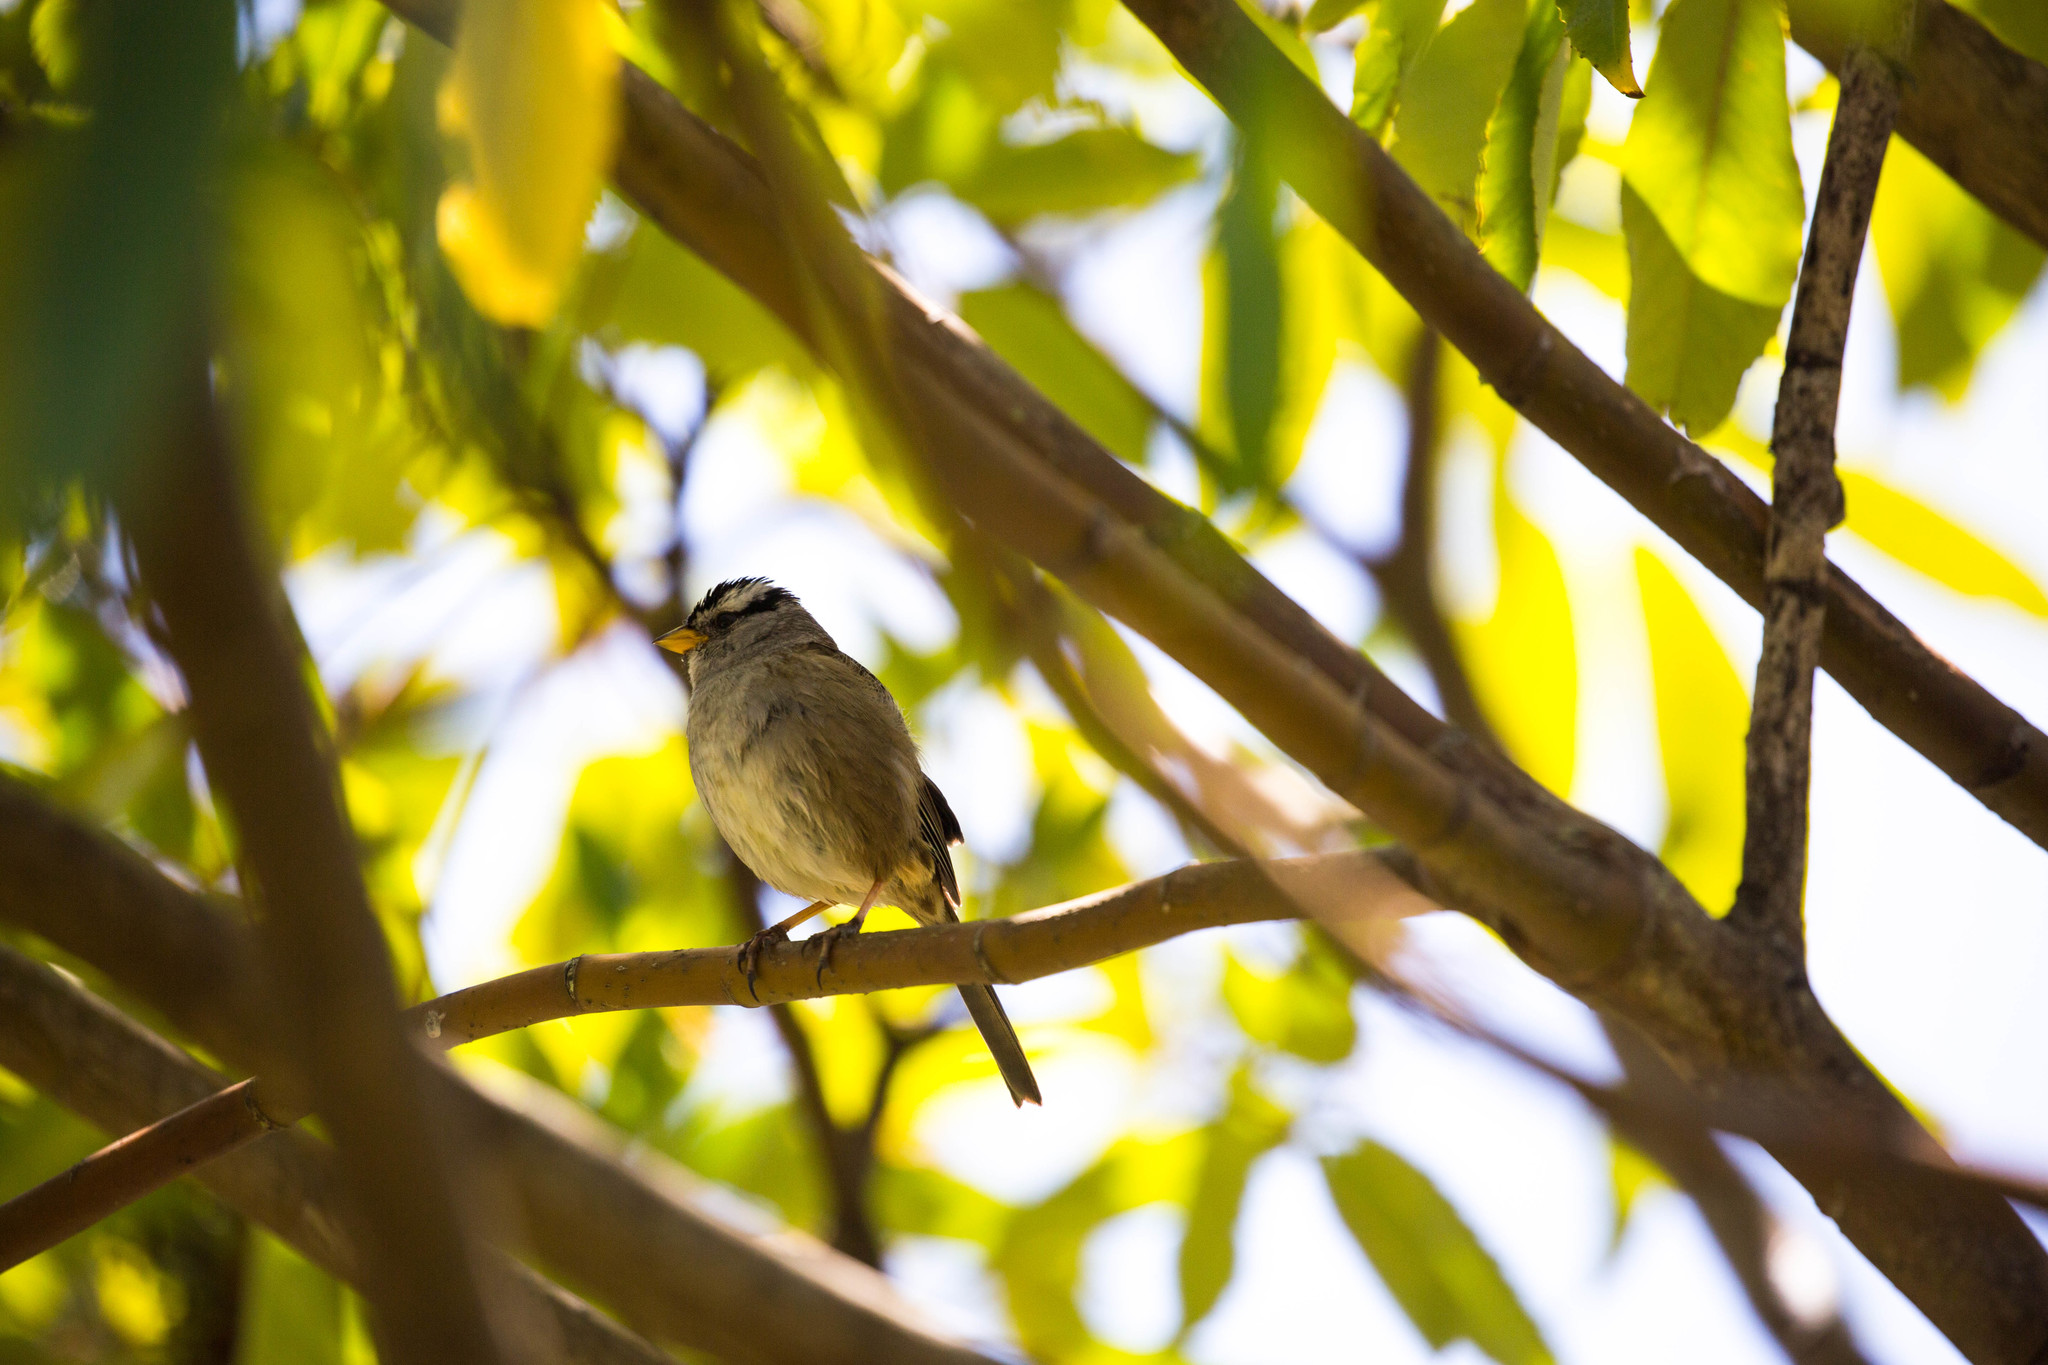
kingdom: Animalia
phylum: Chordata
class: Aves
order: Passeriformes
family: Passerellidae
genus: Zonotrichia
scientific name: Zonotrichia leucophrys
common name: White-crowned sparrow
